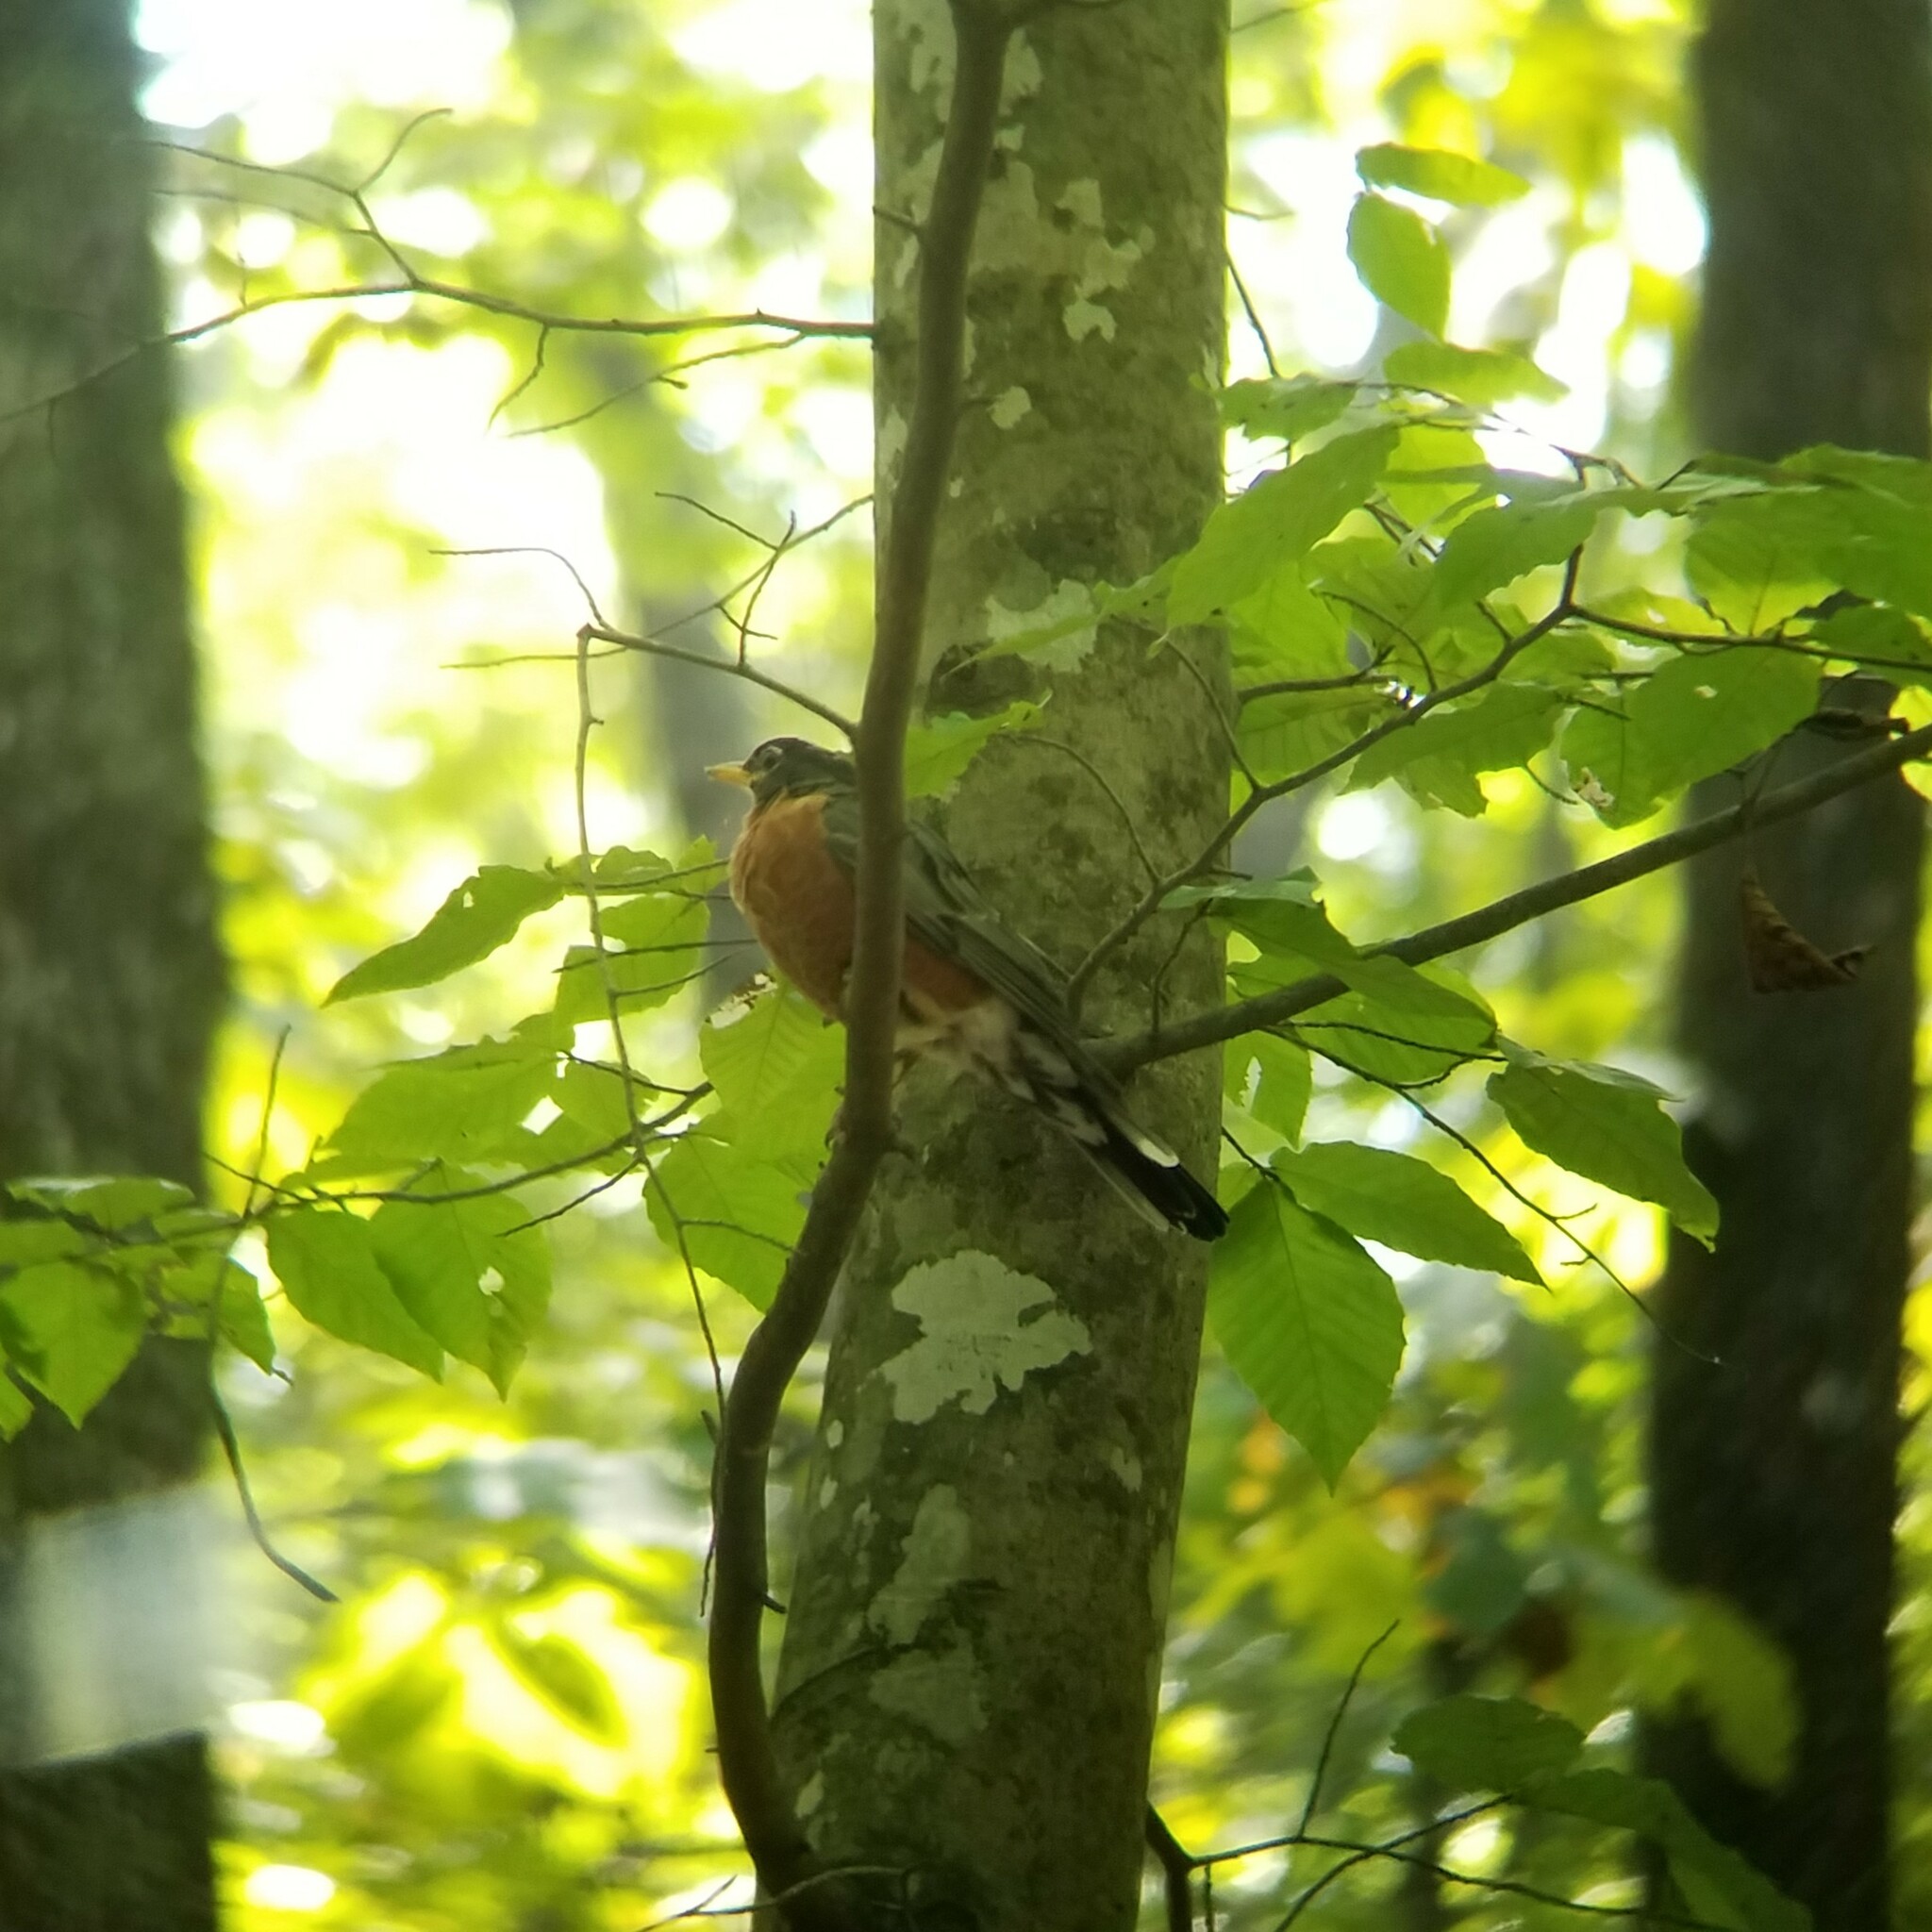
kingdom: Animalia
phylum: Chordata
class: Aves
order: Passeriformes
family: Turdidae
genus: Turdus
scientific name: Turdus migratorius
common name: American robin
